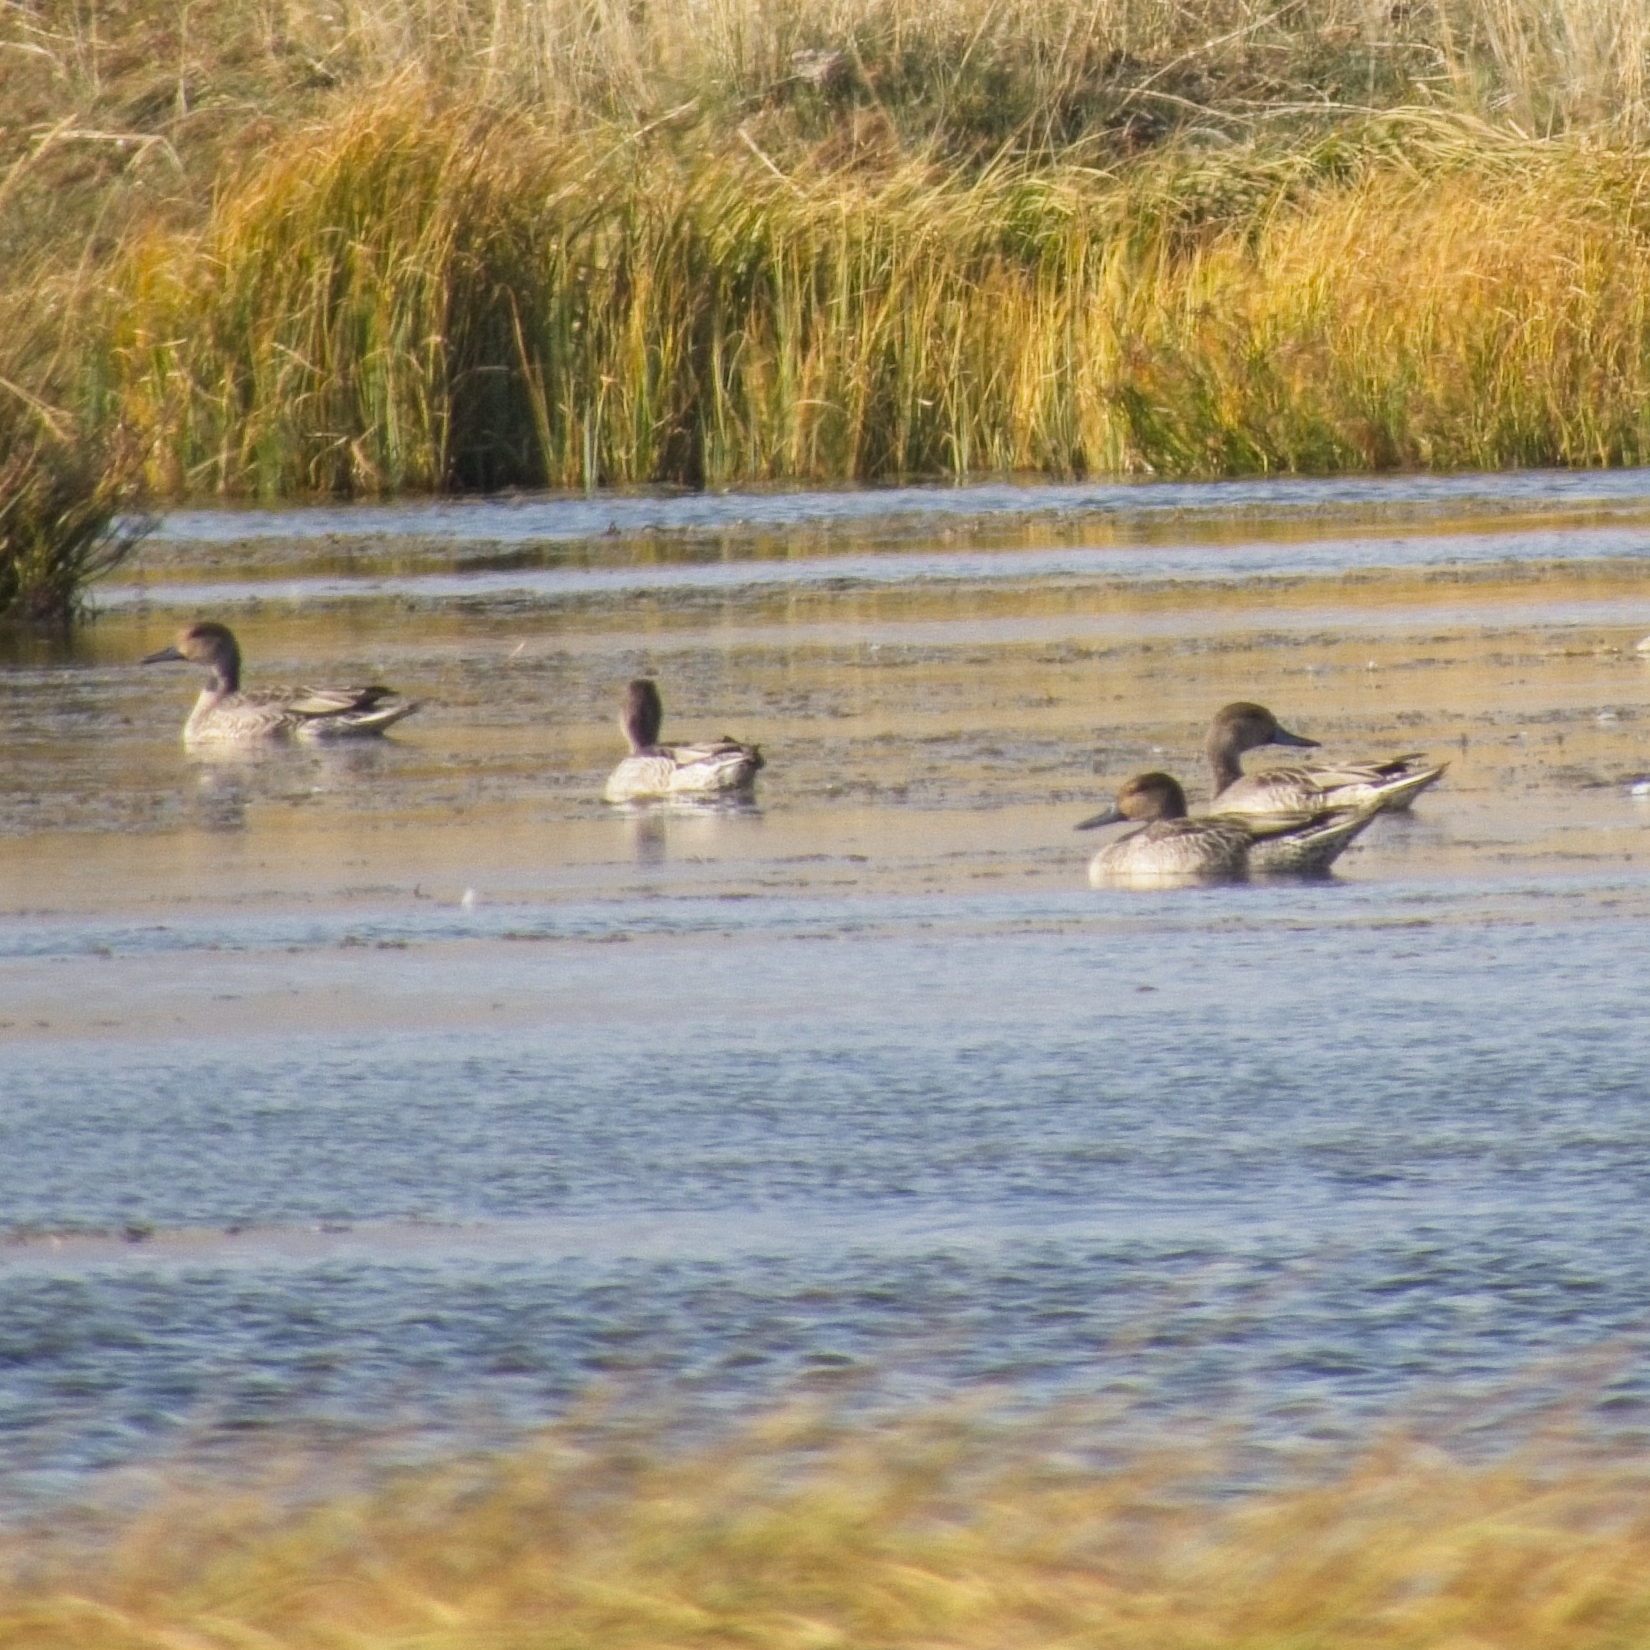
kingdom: Animalia
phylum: Chordata
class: Aves
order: Anseriformes
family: Anatidae
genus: Anas
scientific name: Anas acuta
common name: Northern pintail
